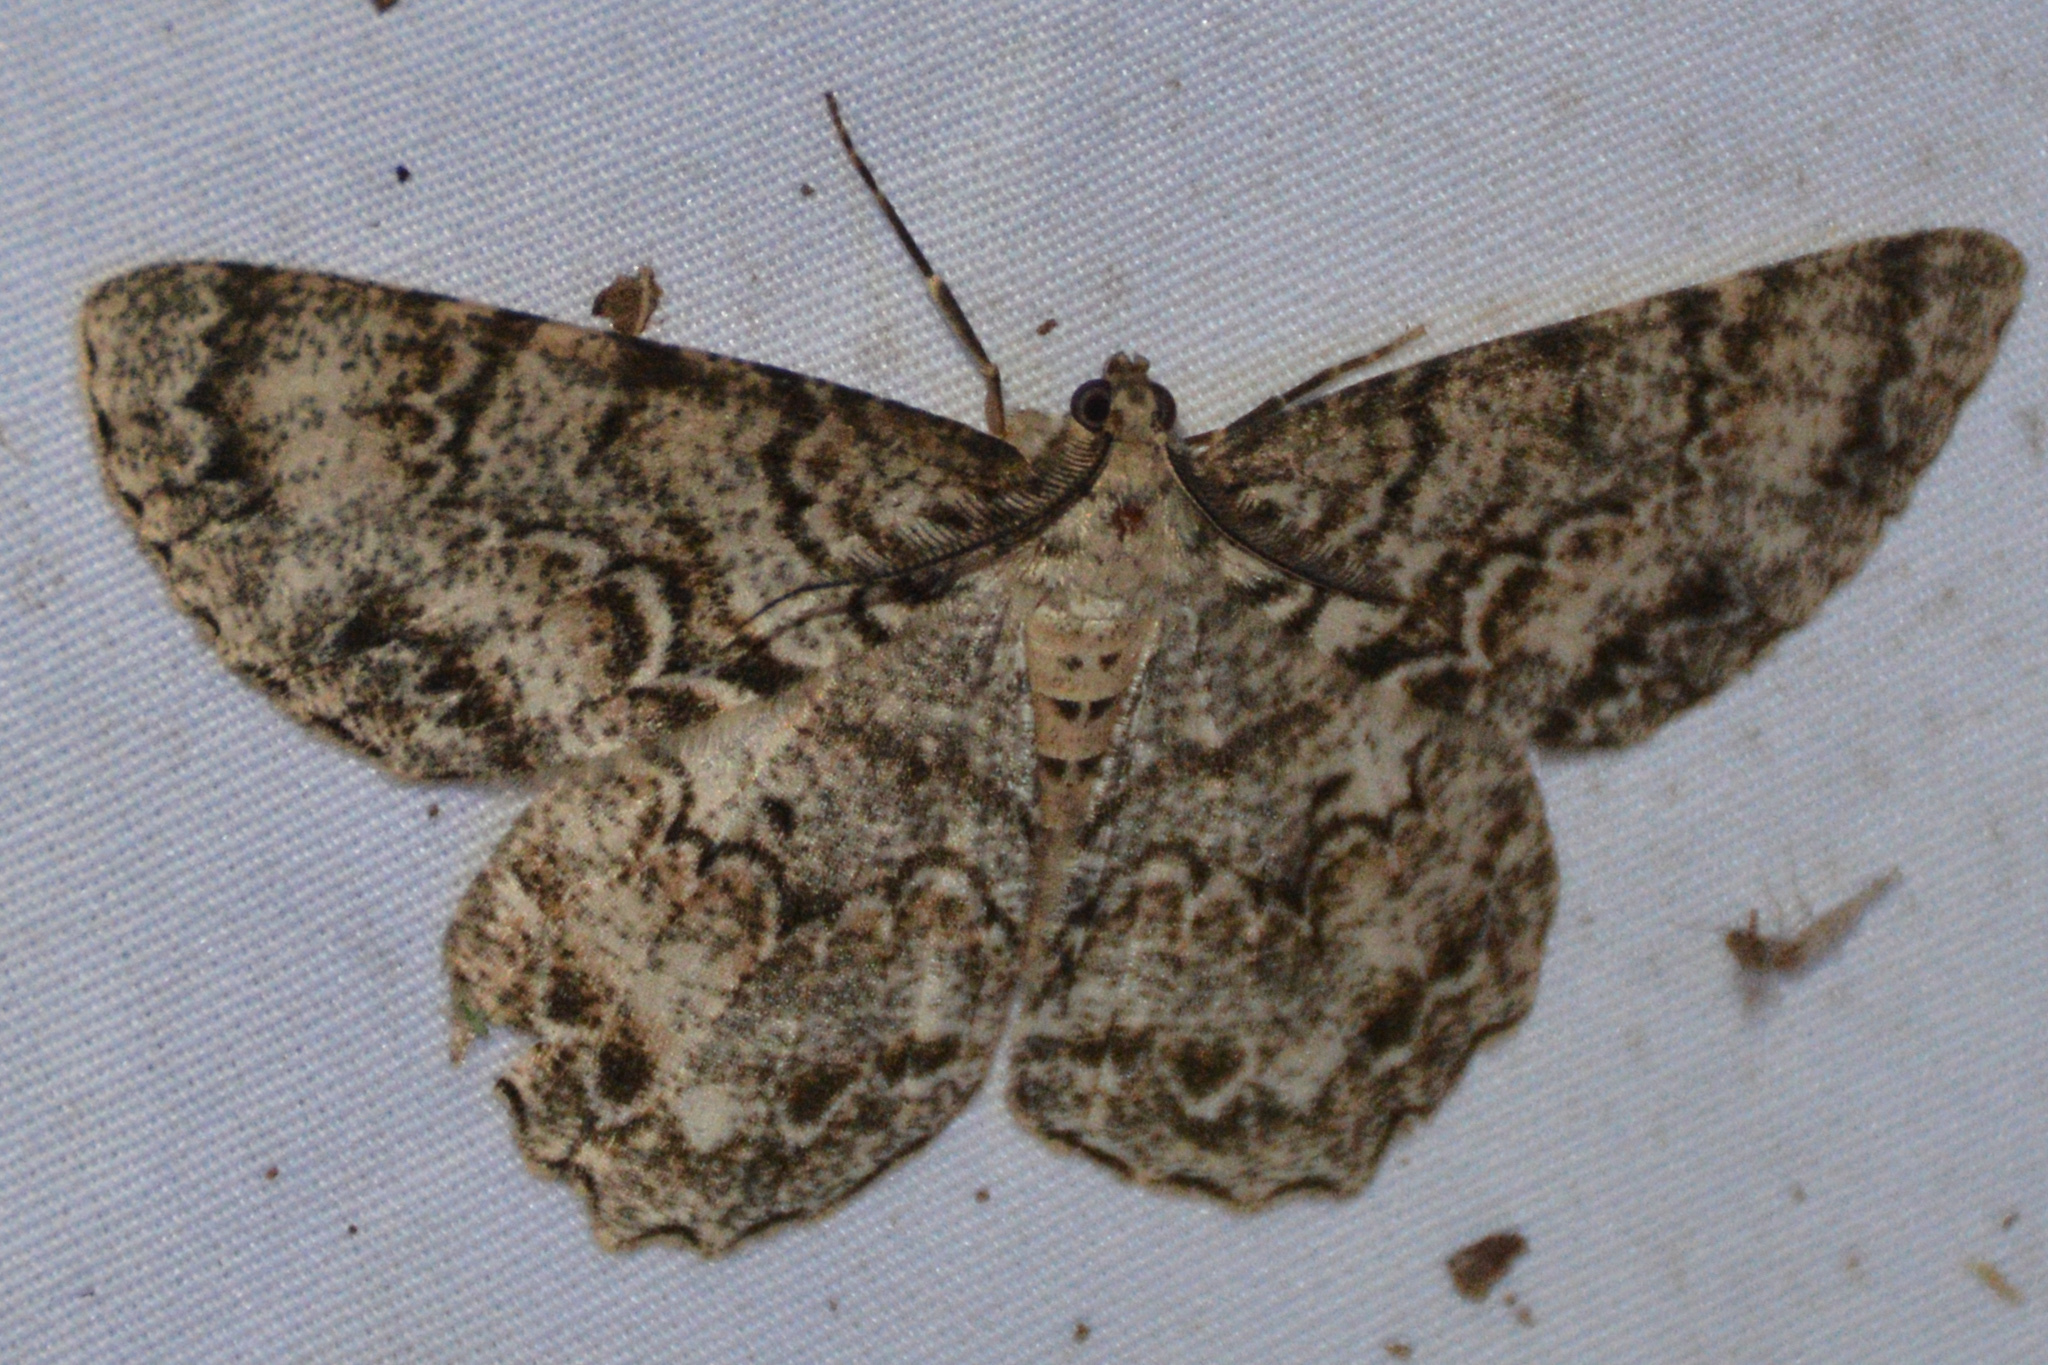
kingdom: Animalia
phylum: Arthropoda
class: Insecta
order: Lepidoptera
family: Geometridae
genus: Epimecis
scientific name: Epimecis hortaria
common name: Tulip-tree beauty
